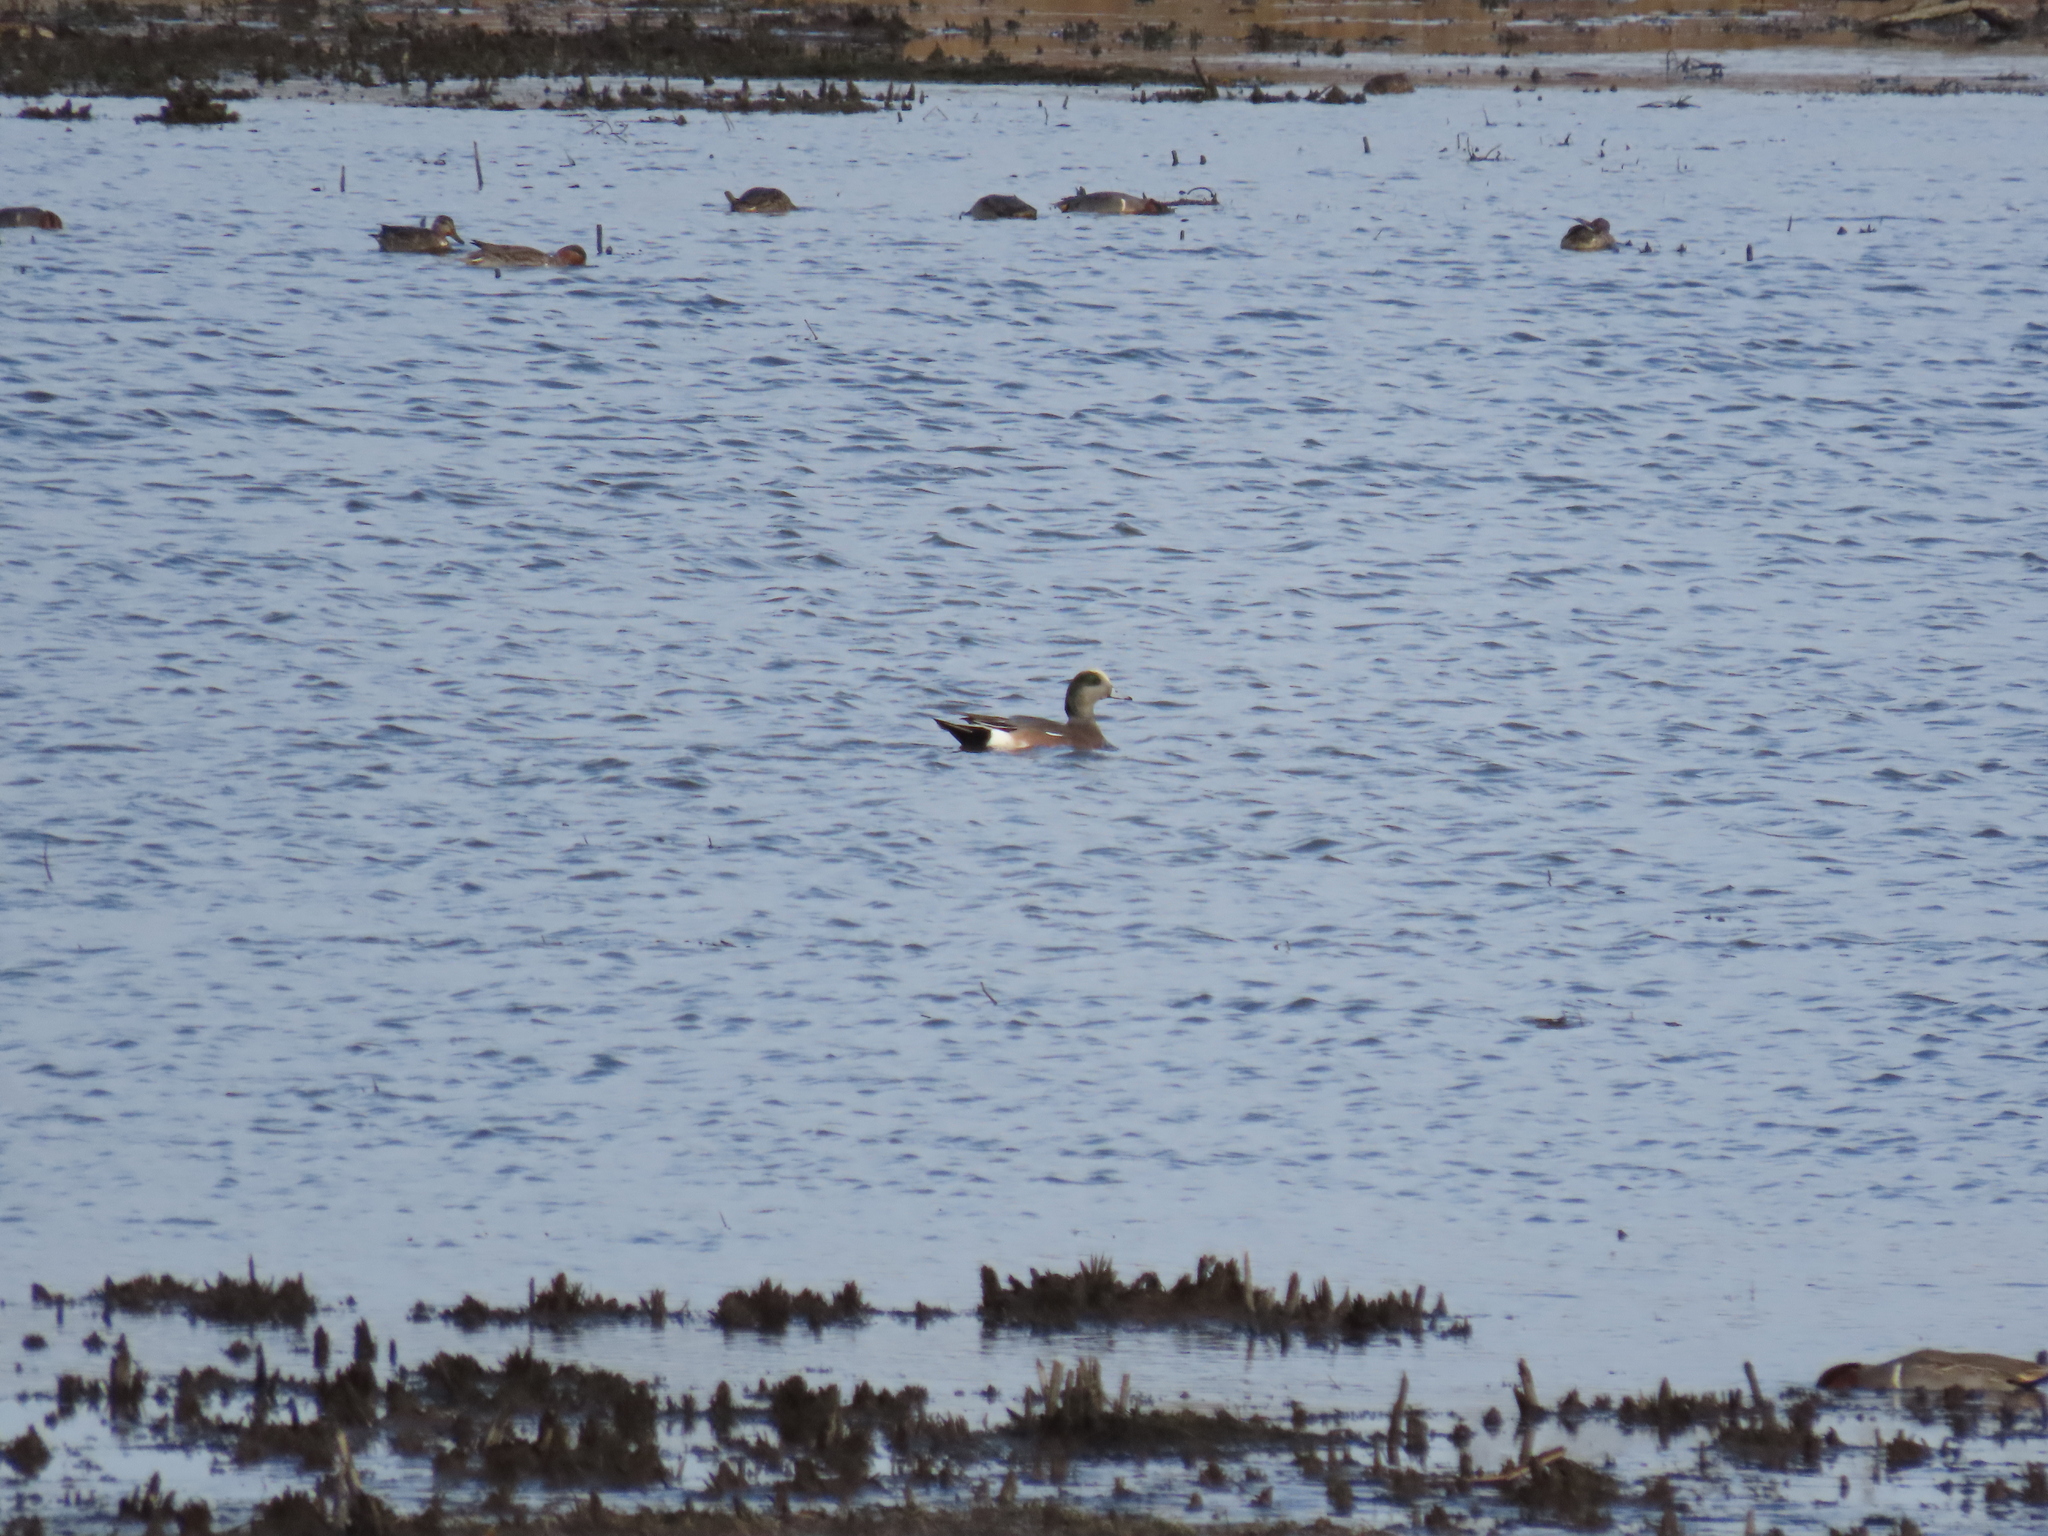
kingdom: Animalia
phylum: Chordata
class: Aves
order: Anseriformes
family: Anatidae
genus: Mareca
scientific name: Mareca americana
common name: American wigeon
